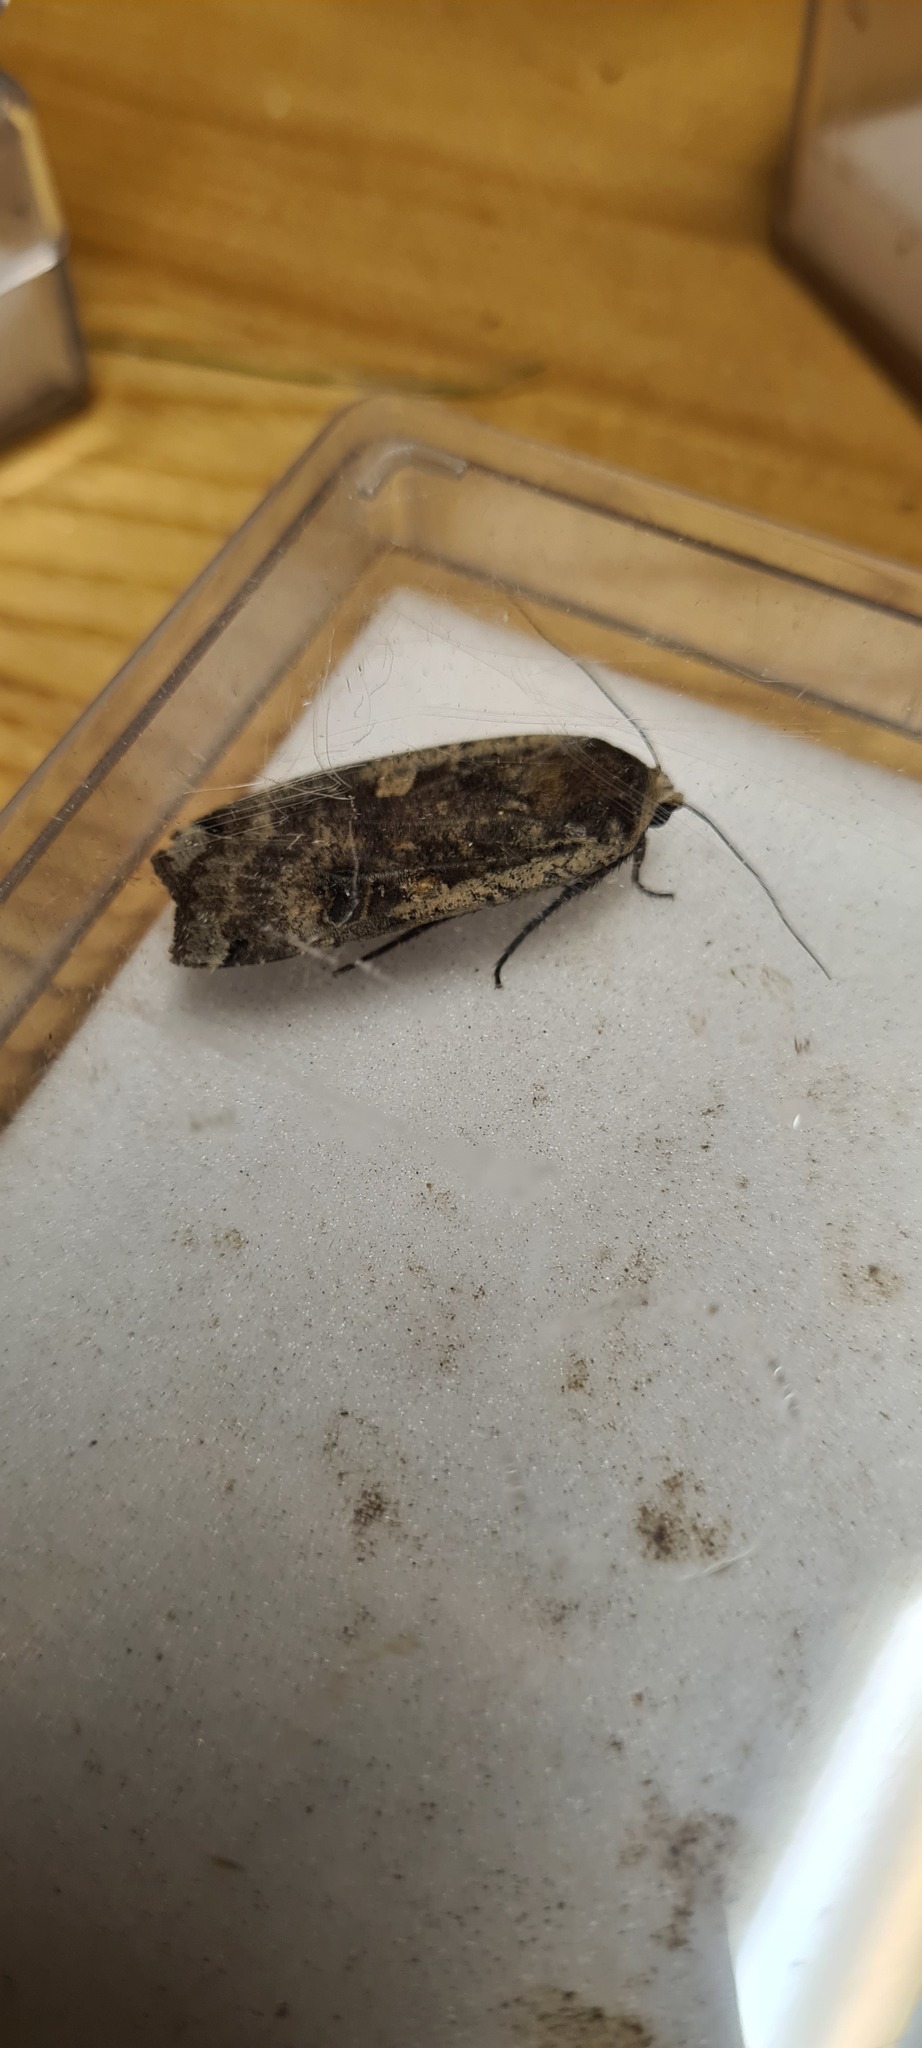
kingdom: Animalia
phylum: Arthropoda
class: Insecta
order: Lepidoptera
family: Noctuidae
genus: Noctua
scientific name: Noctua pronuba
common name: Large yellow underwing
